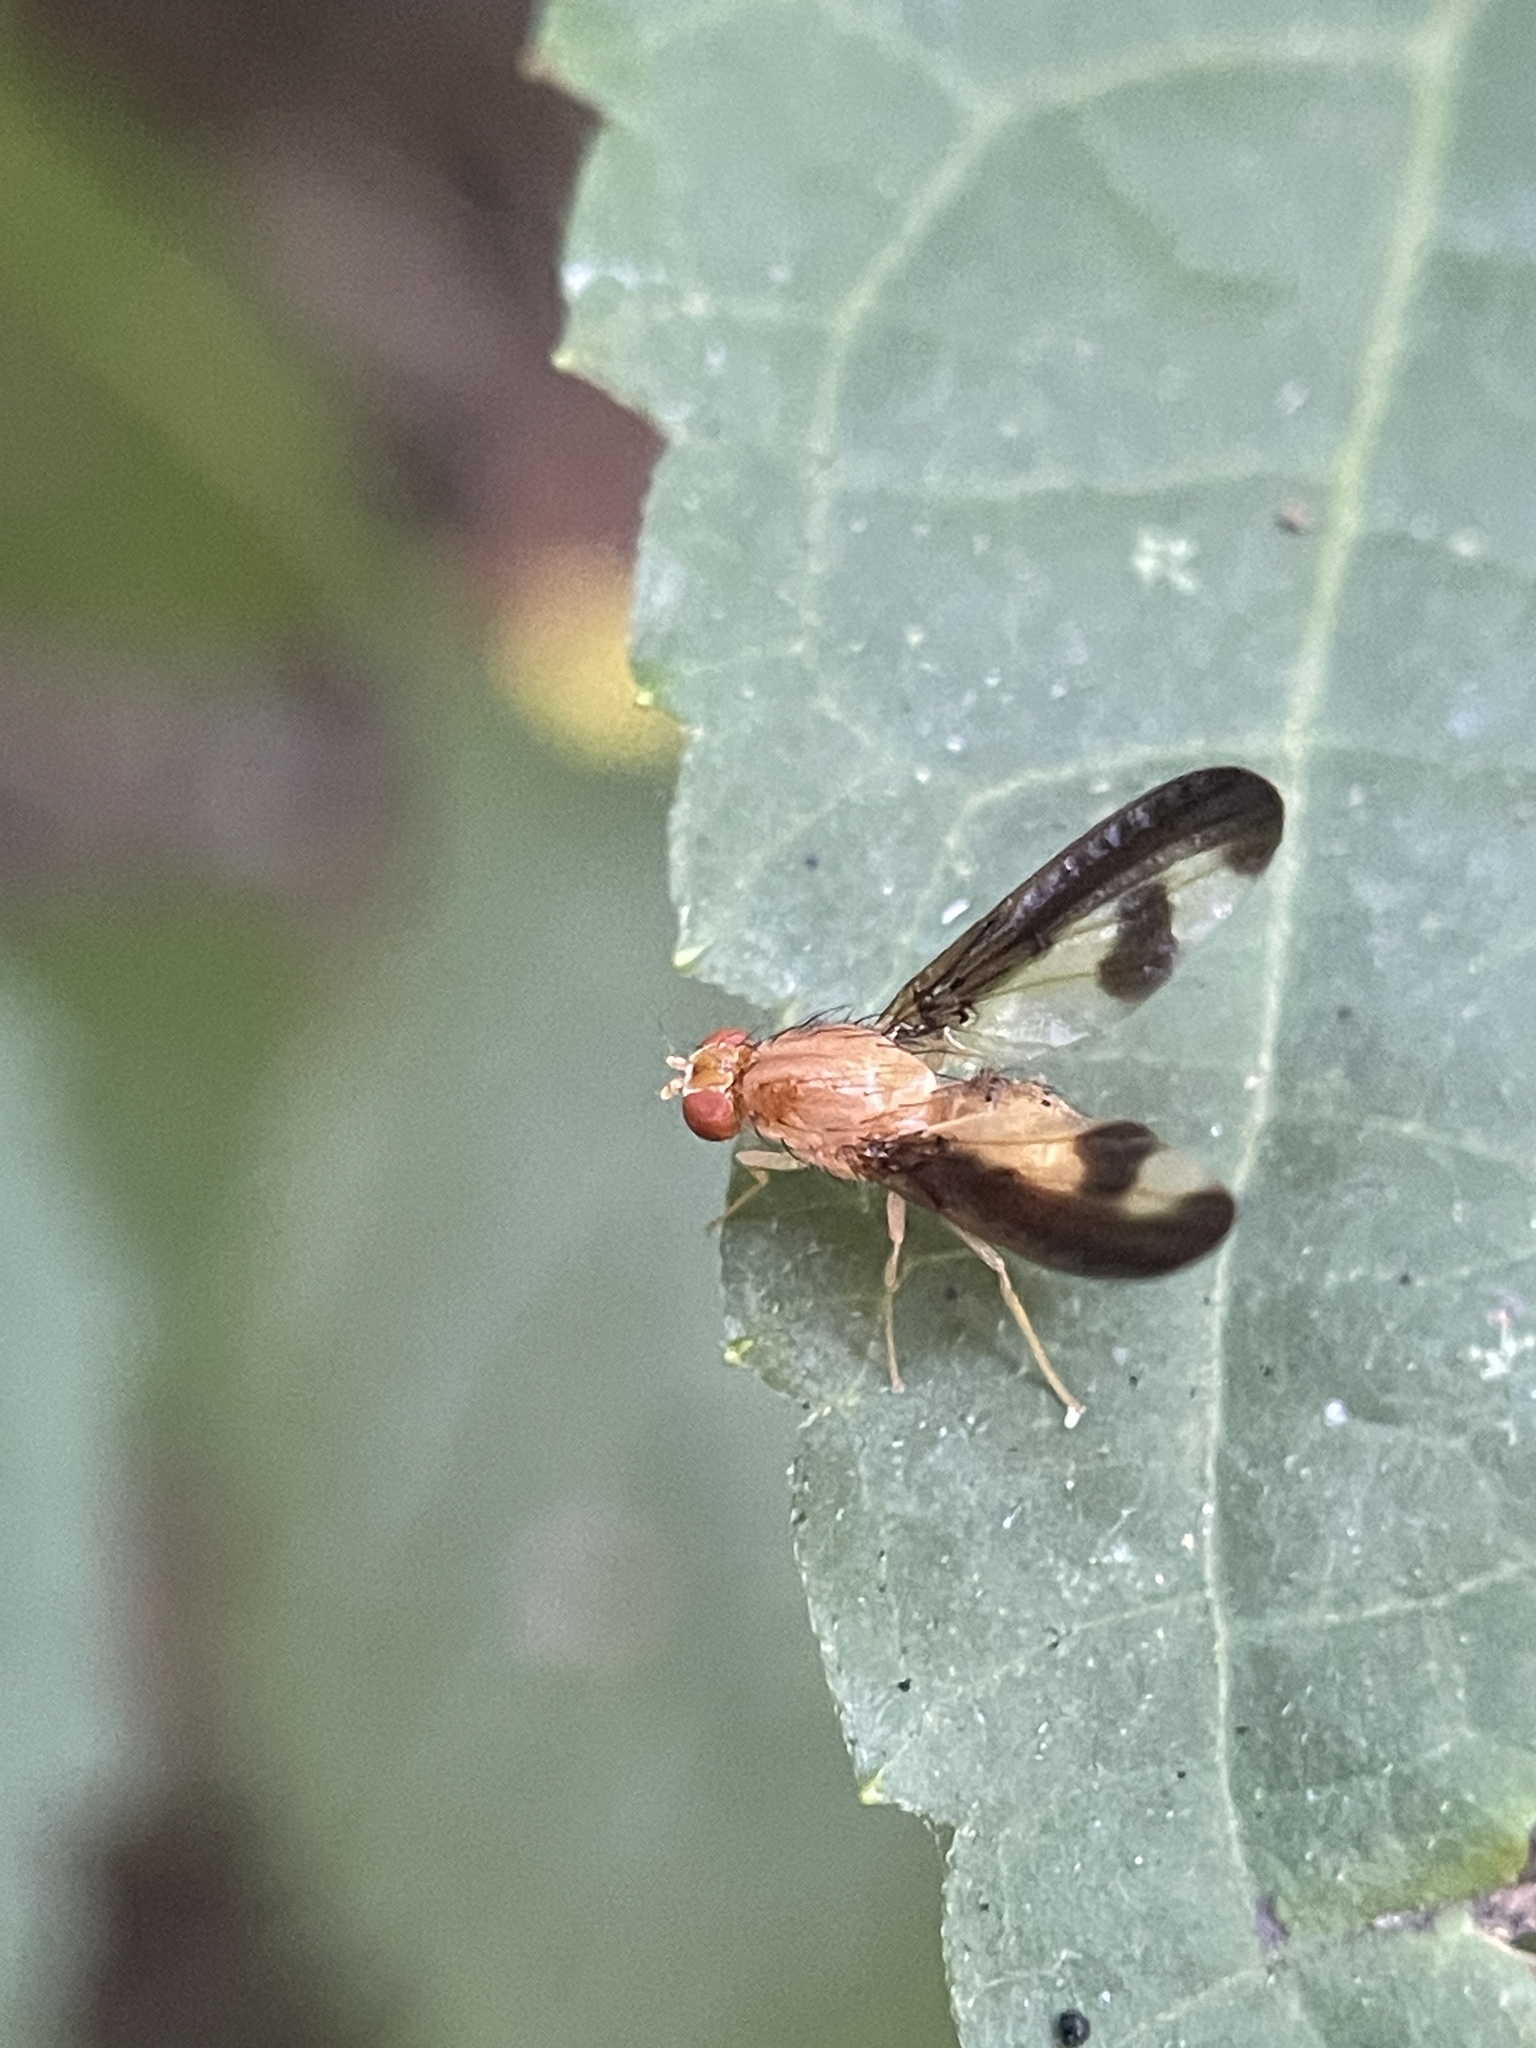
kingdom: Animalia
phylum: Arthropoda
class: Insecta
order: Diptera
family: Pallopteridae
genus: Toxonevra
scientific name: Toxonevra superba
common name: Antlered flutter fly
